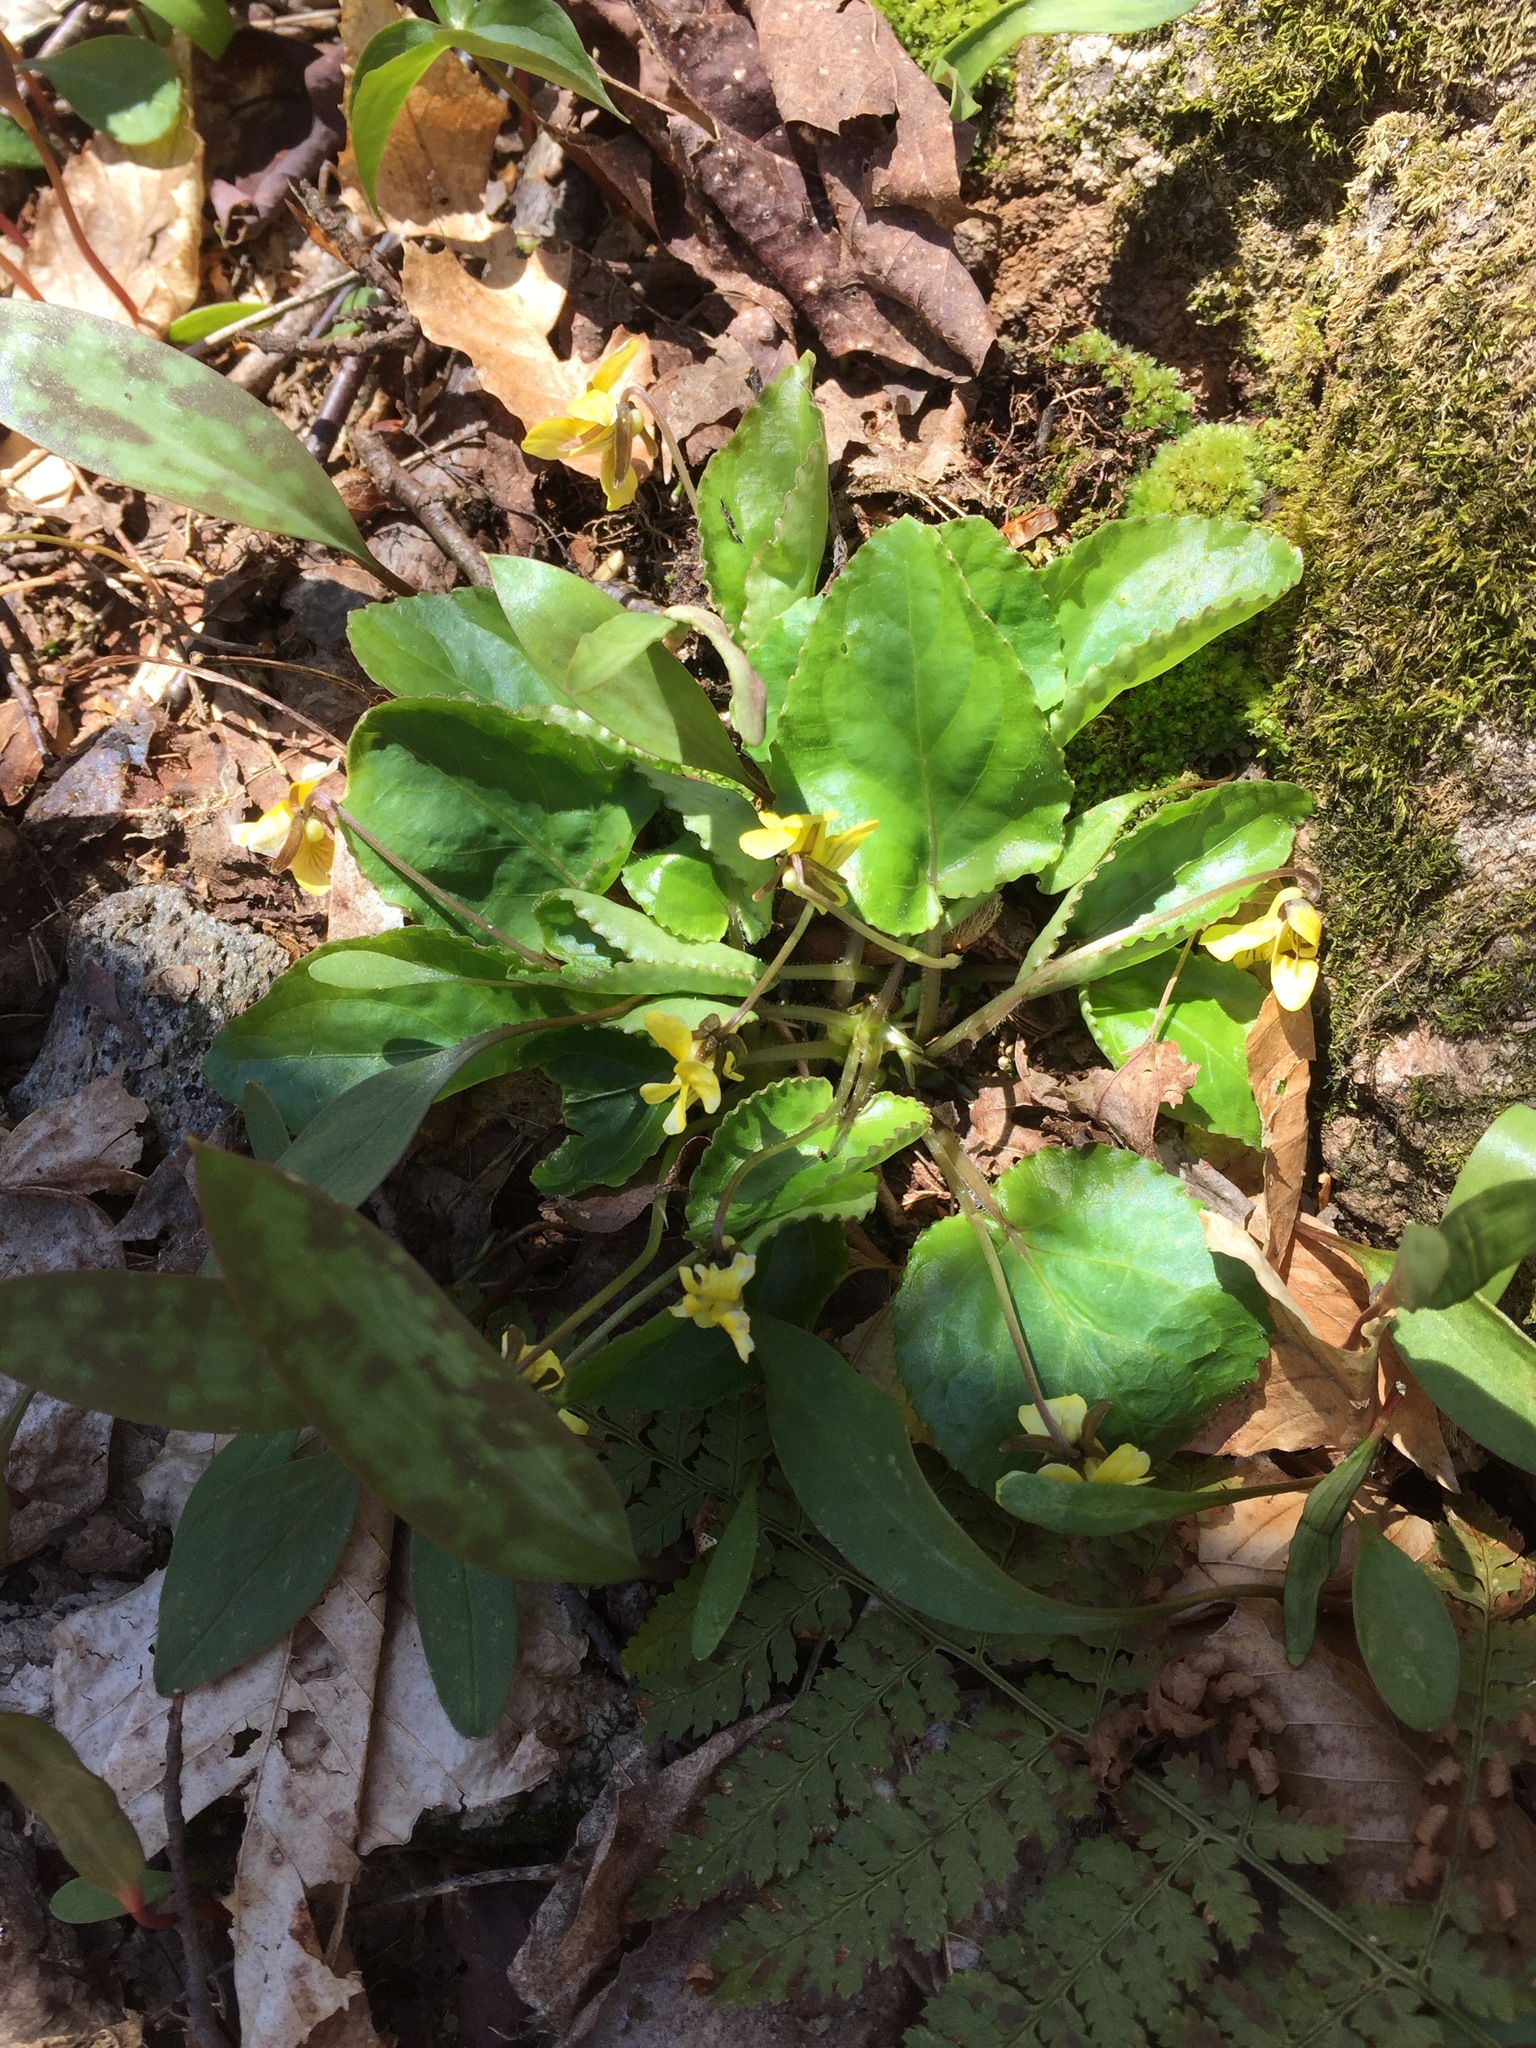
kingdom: Plantae
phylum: Tracheophyta
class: Magnoliopsida
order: Malpighiales
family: Violaceae
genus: Viola
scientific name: Viola rotundifolia
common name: Early yellow violet
